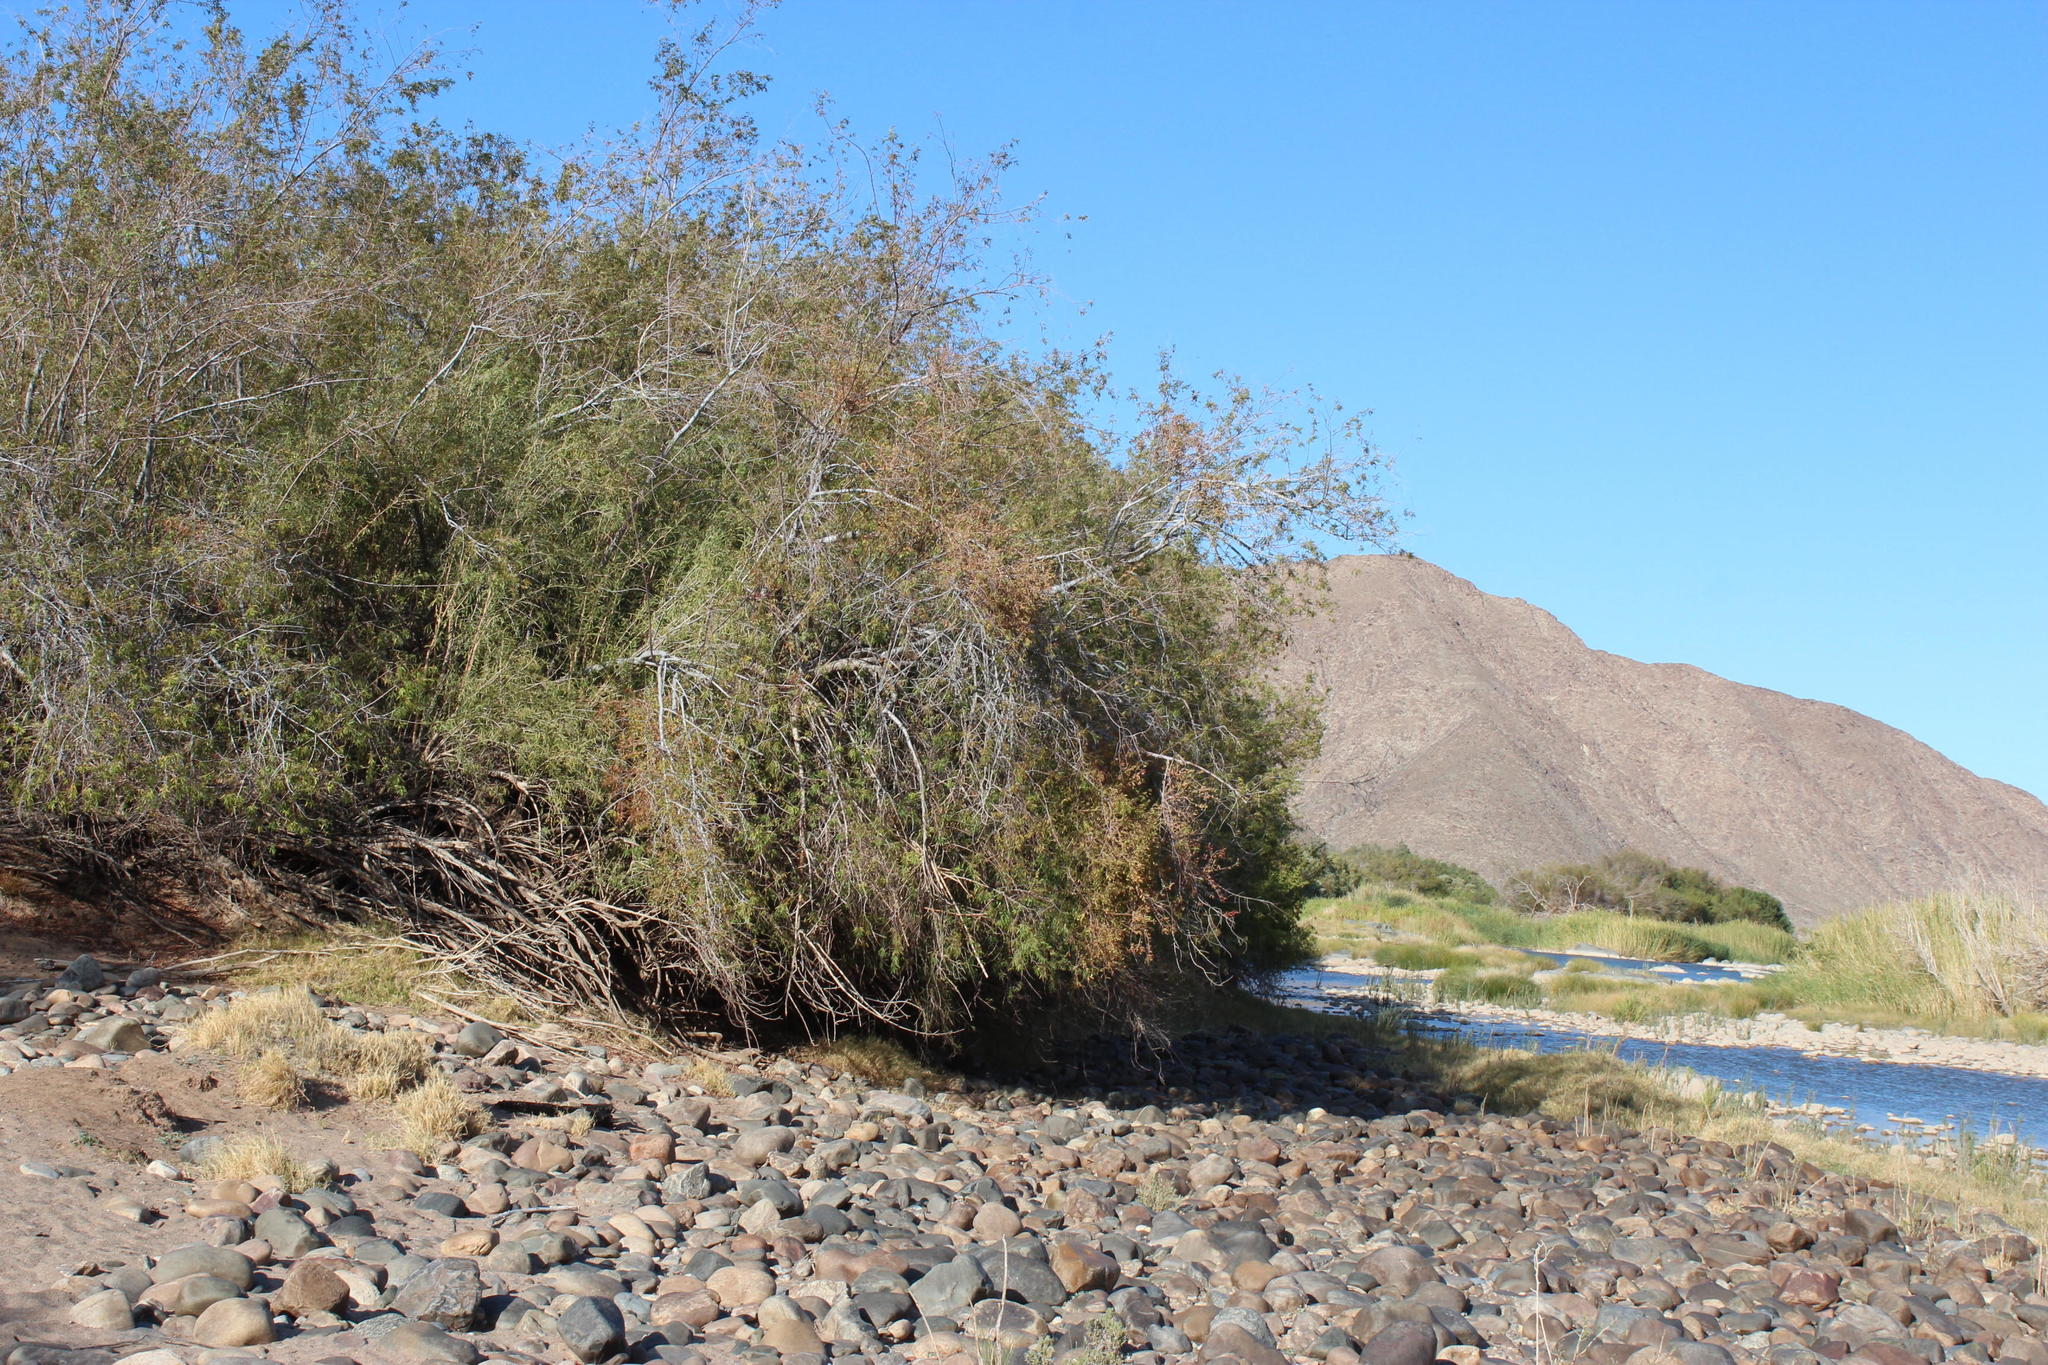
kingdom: Plantae
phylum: Tracheophyta
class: Magnoliopsida
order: Sapindales
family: Anacardiaceae
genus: Searsia
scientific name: Searsia pendulina
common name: White karee
